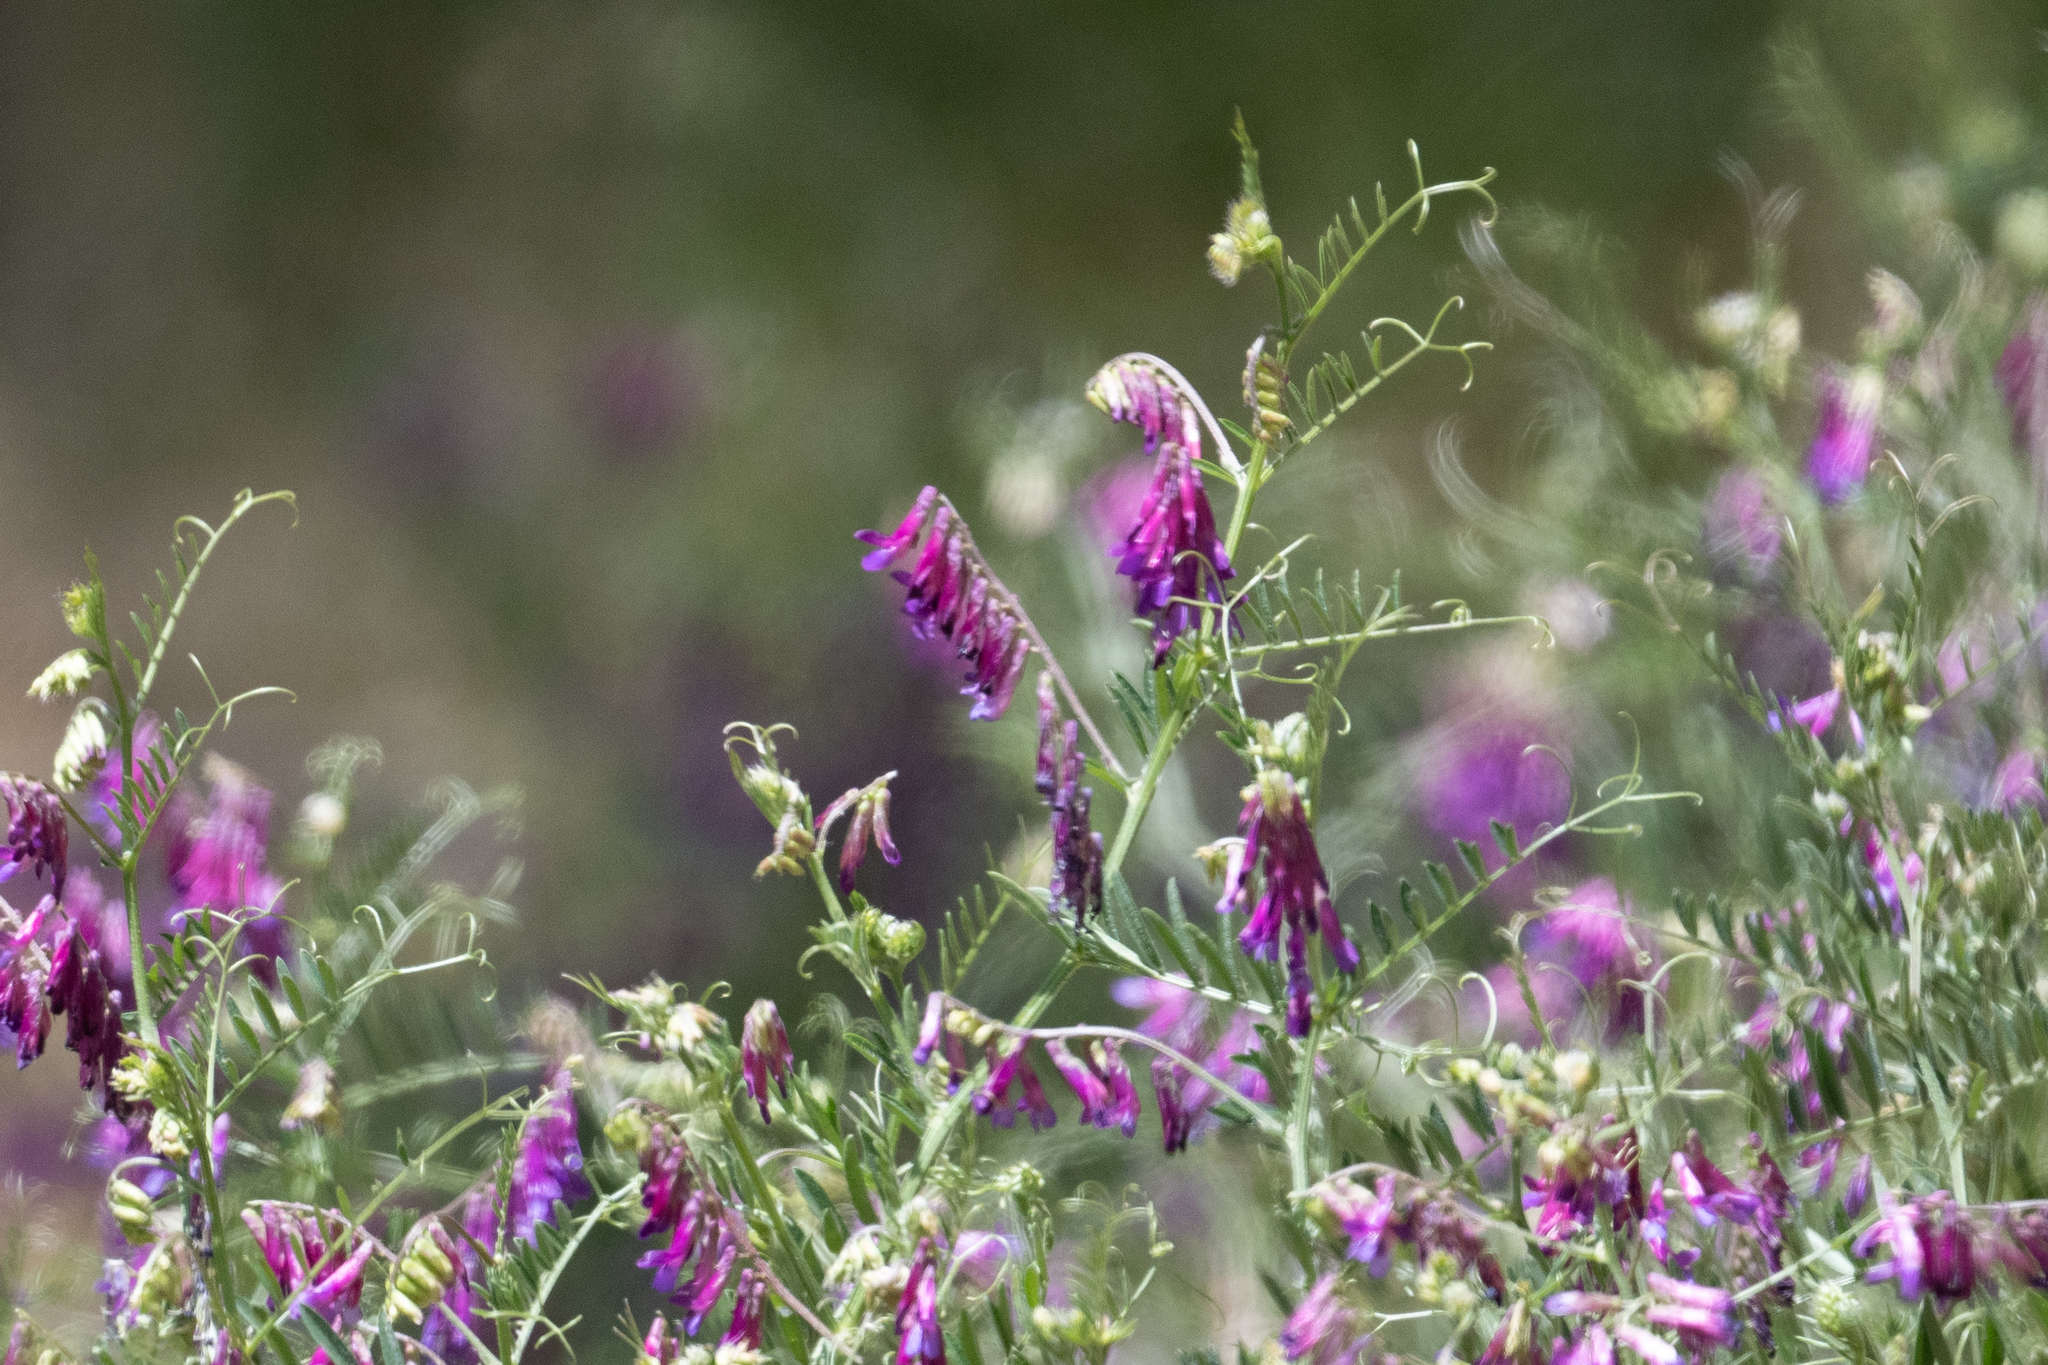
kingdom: Plantae
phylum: Tracheophyta
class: Magnoliopsida
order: Fabales
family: Fabaceae
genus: Vicia
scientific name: Vicia villosa
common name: Fodder vetch
